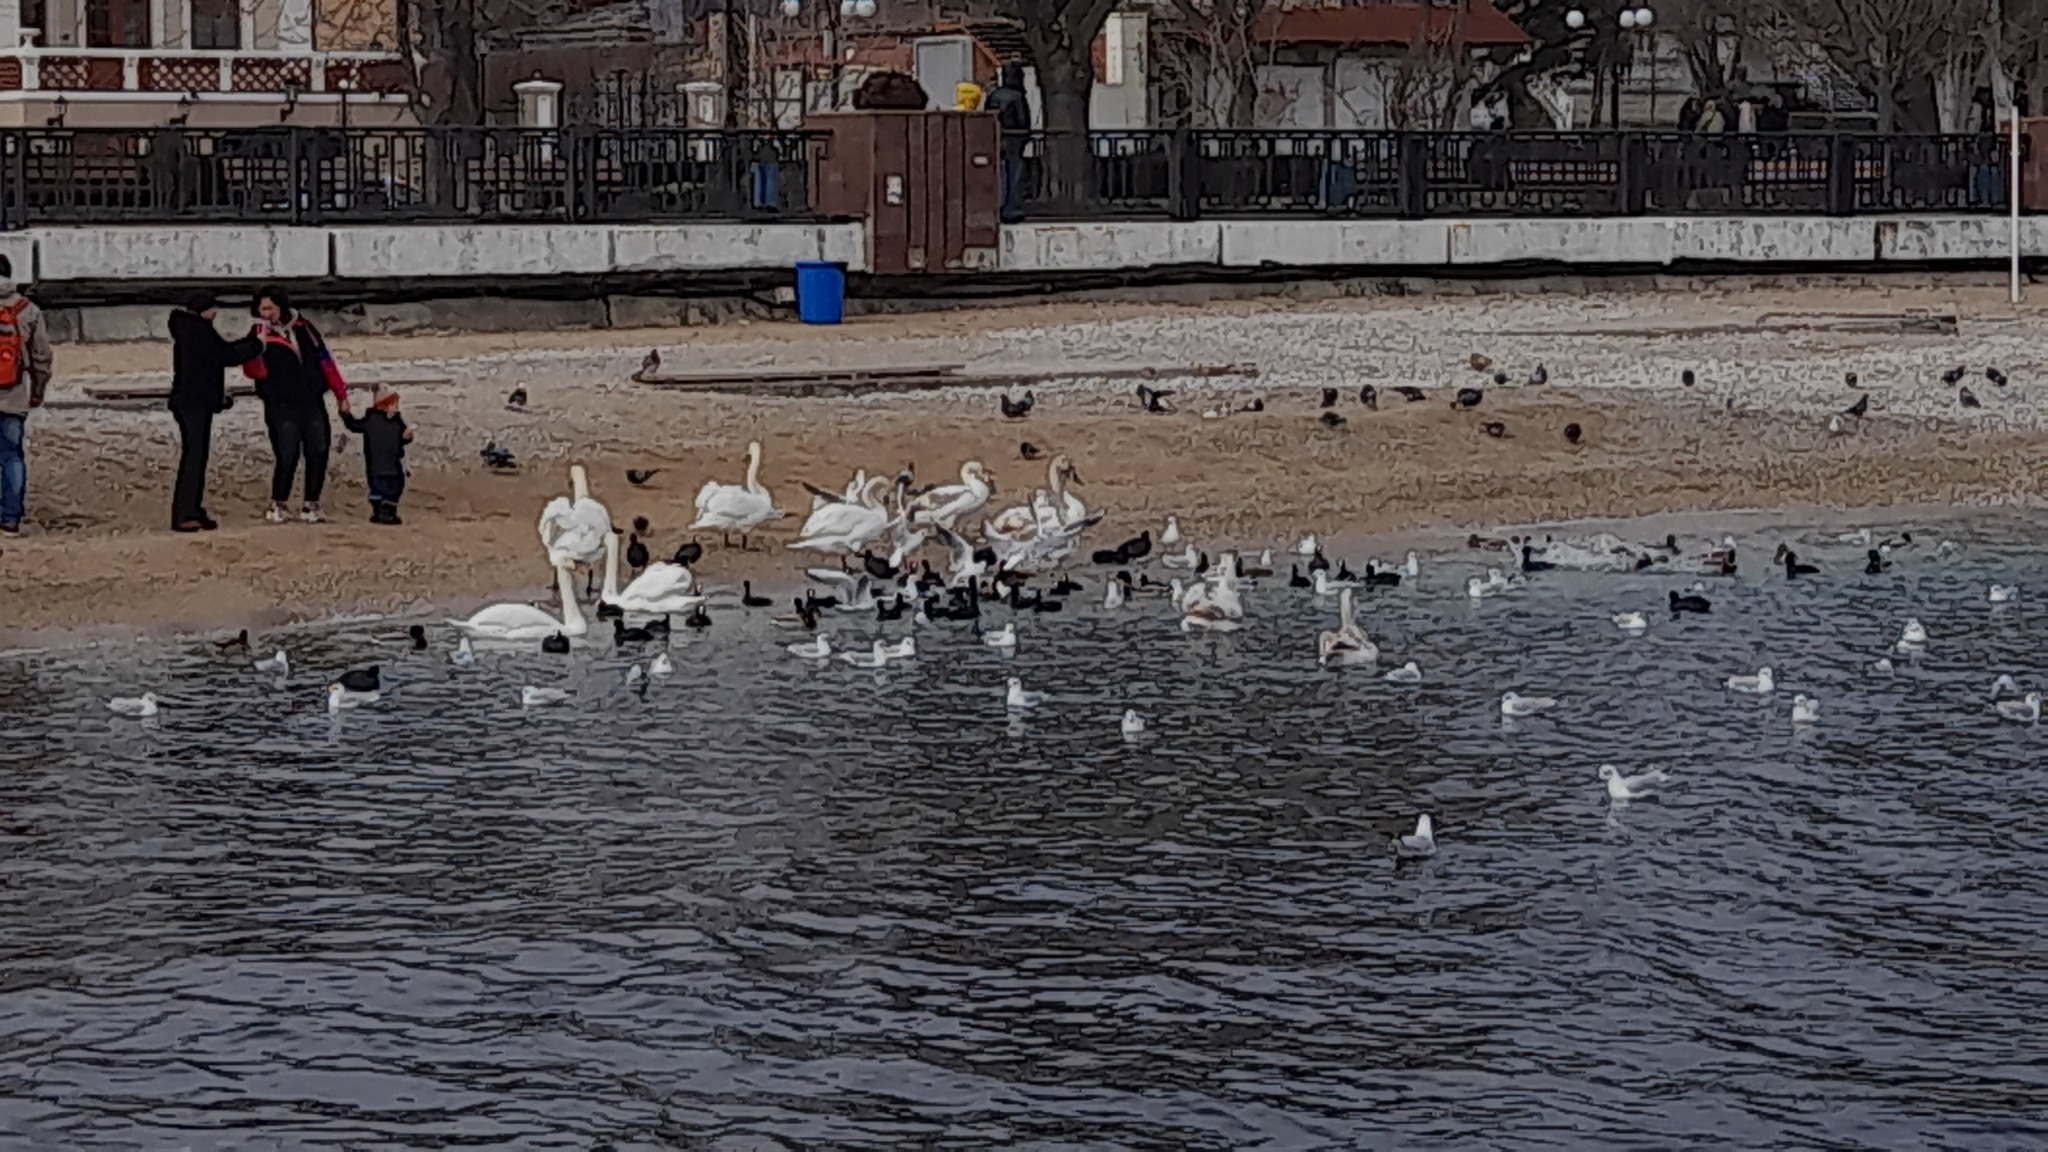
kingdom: Animalia
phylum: Chordata
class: Aves
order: Anseriformes
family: Anatidae
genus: Cygnus
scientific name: Cygnus olor
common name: Mute swan
